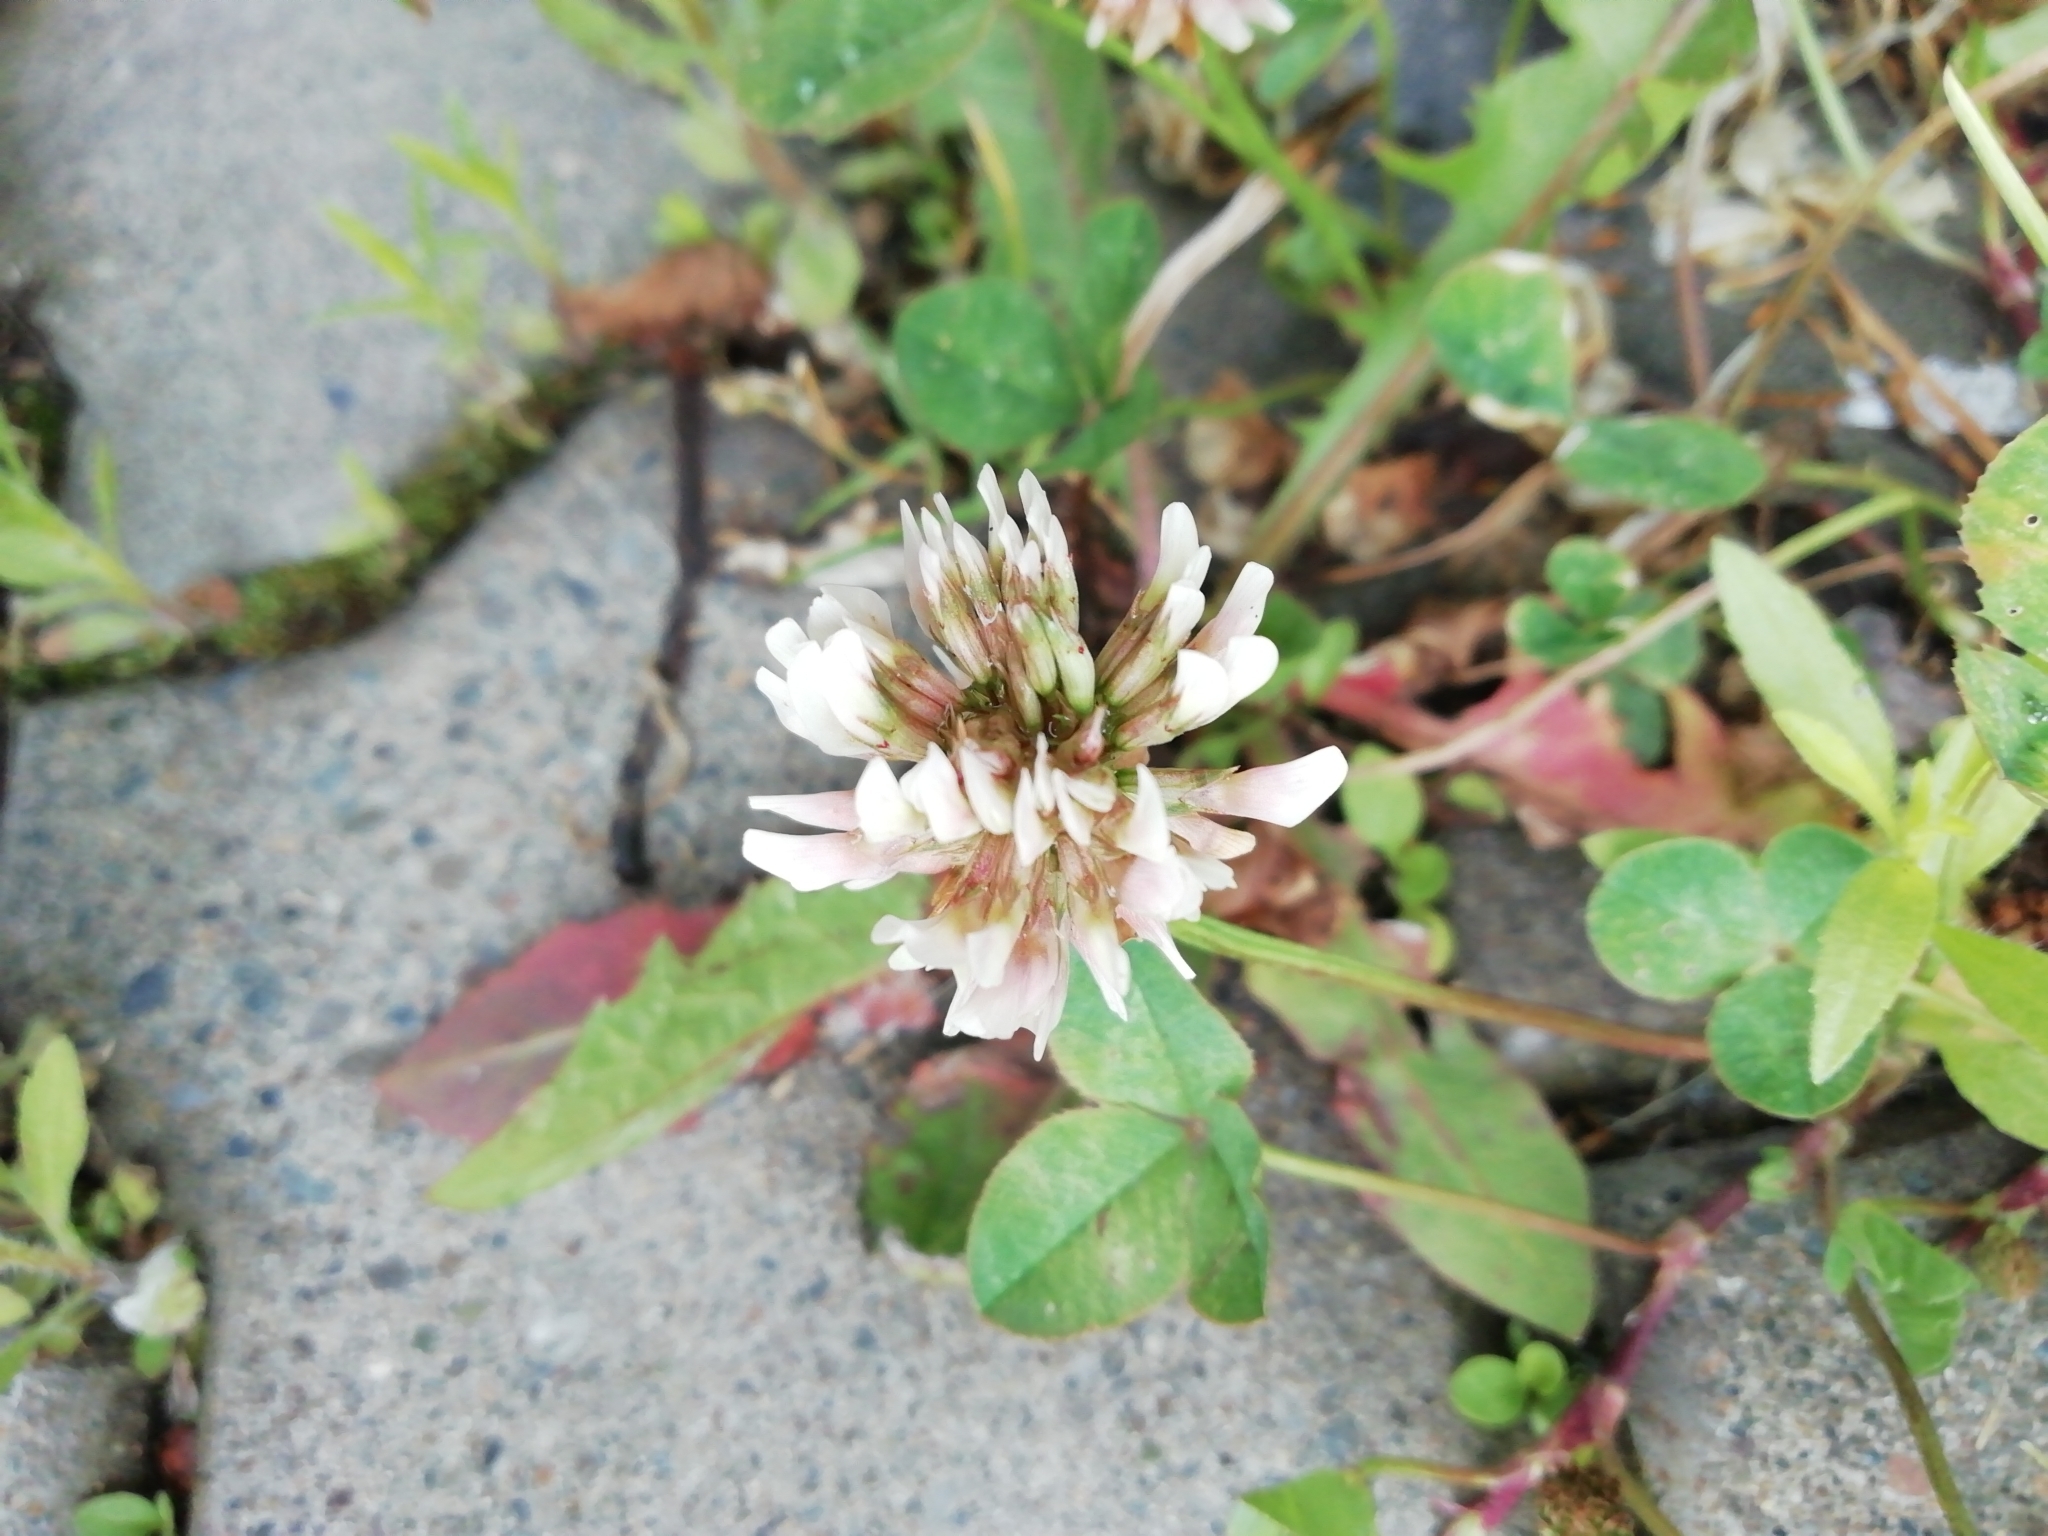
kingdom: Plantae
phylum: Tracheophyta
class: Magnoliopsida
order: Fabales
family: Fabaceae
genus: Trifolium
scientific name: Trifolium repens
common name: White clover
